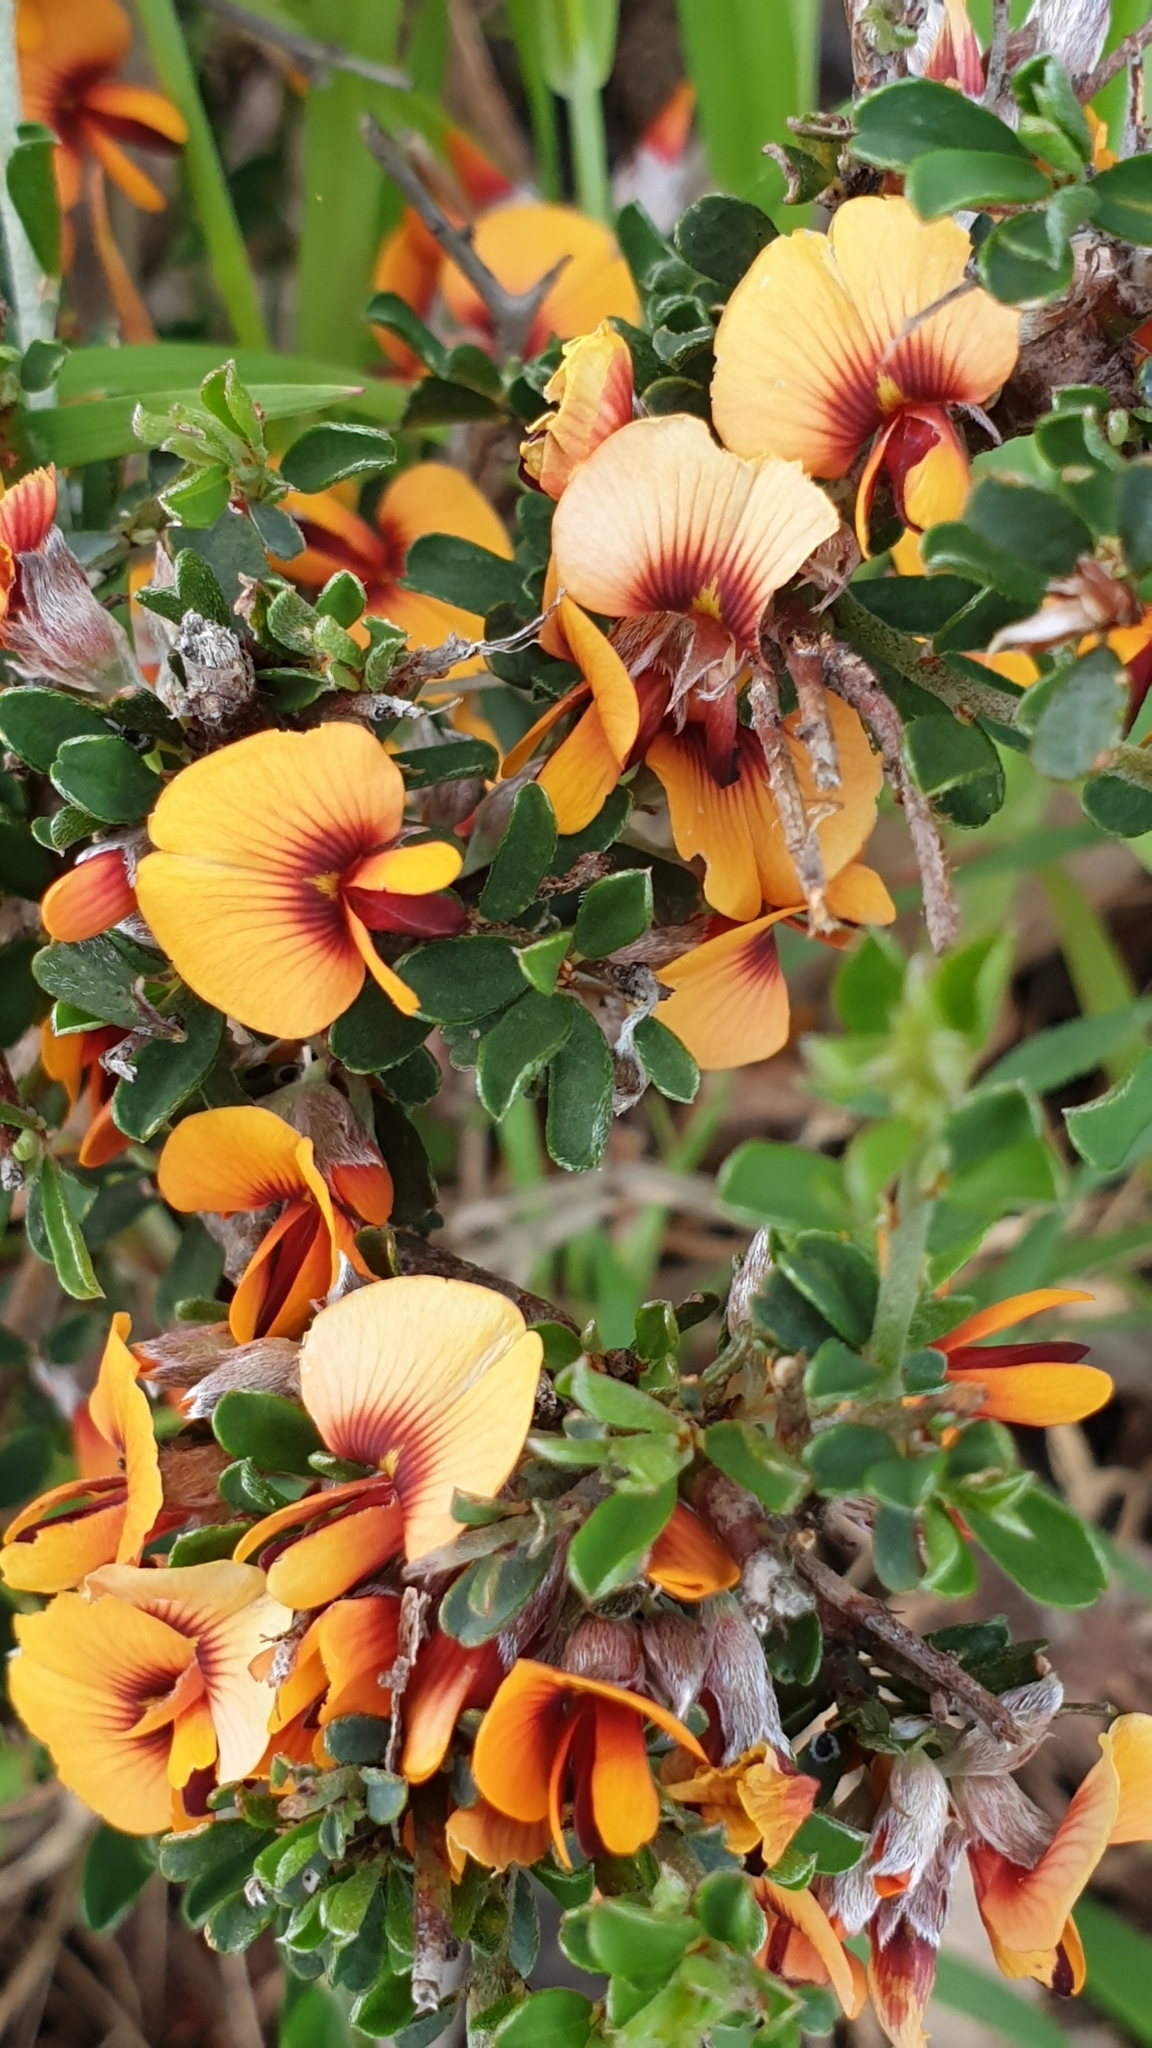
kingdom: Plantae
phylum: Tracheophyta
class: Magnoliopsida
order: Fabales
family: Fabaceae
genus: Pultenaea
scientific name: Pultenaea largiflorens
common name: Twiggy bush-pea
